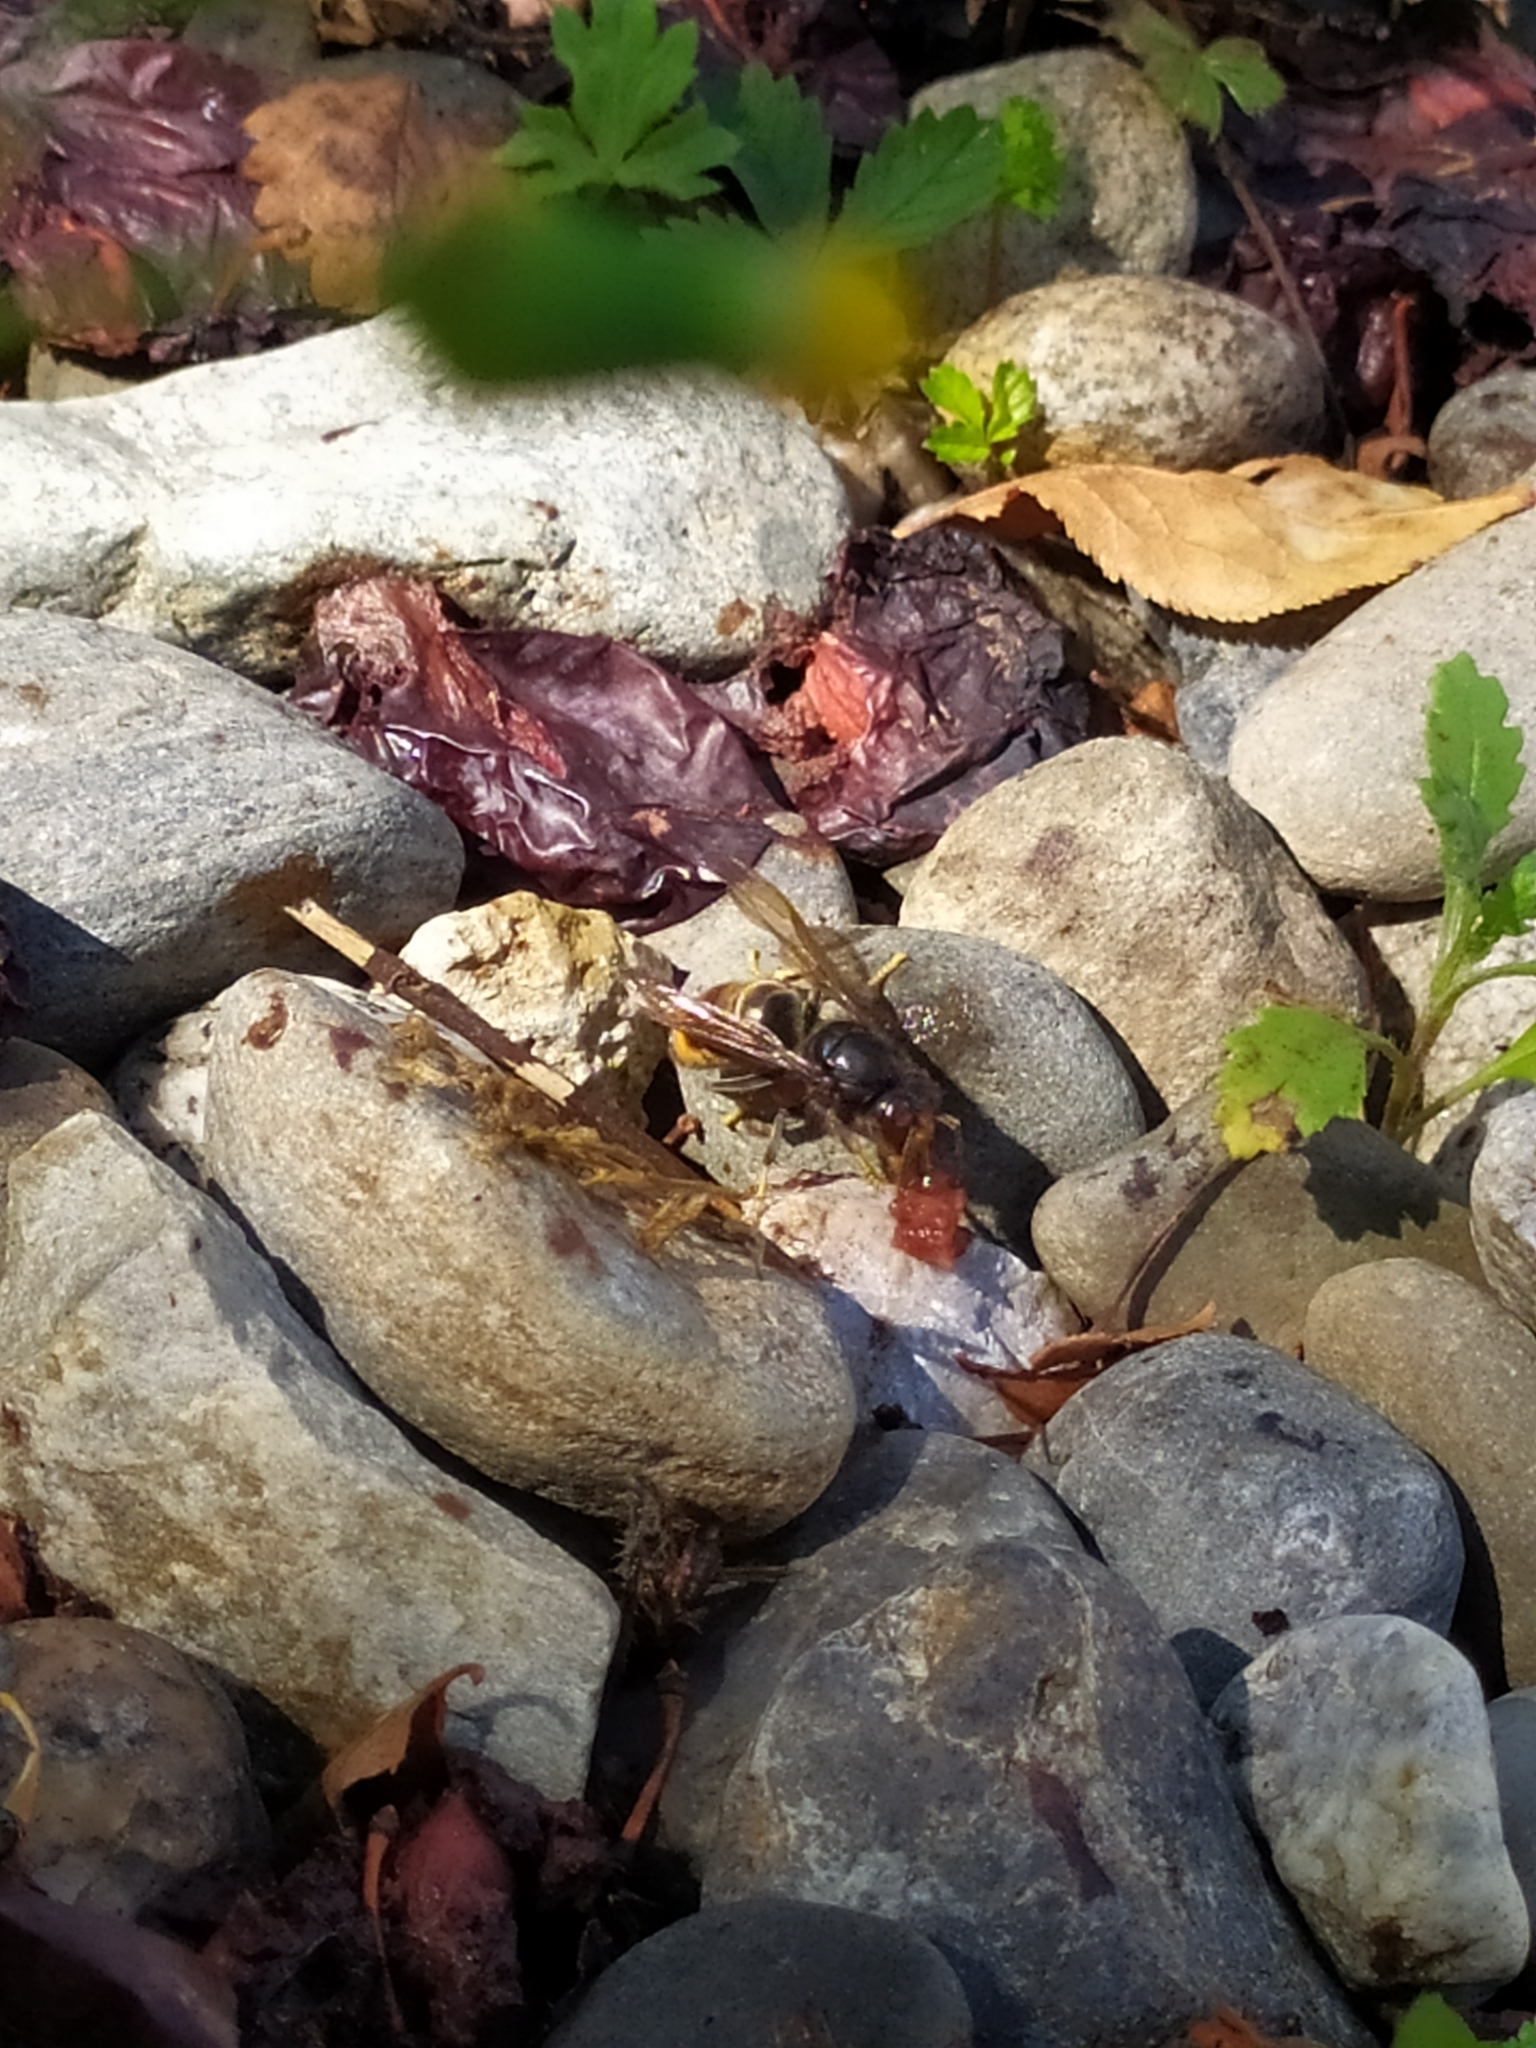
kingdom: Animalia
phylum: Arthropoda
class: Insecta
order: Hymenoptera
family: Vespidae
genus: Vespa
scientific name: Vespa velutina
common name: Asian hornet
